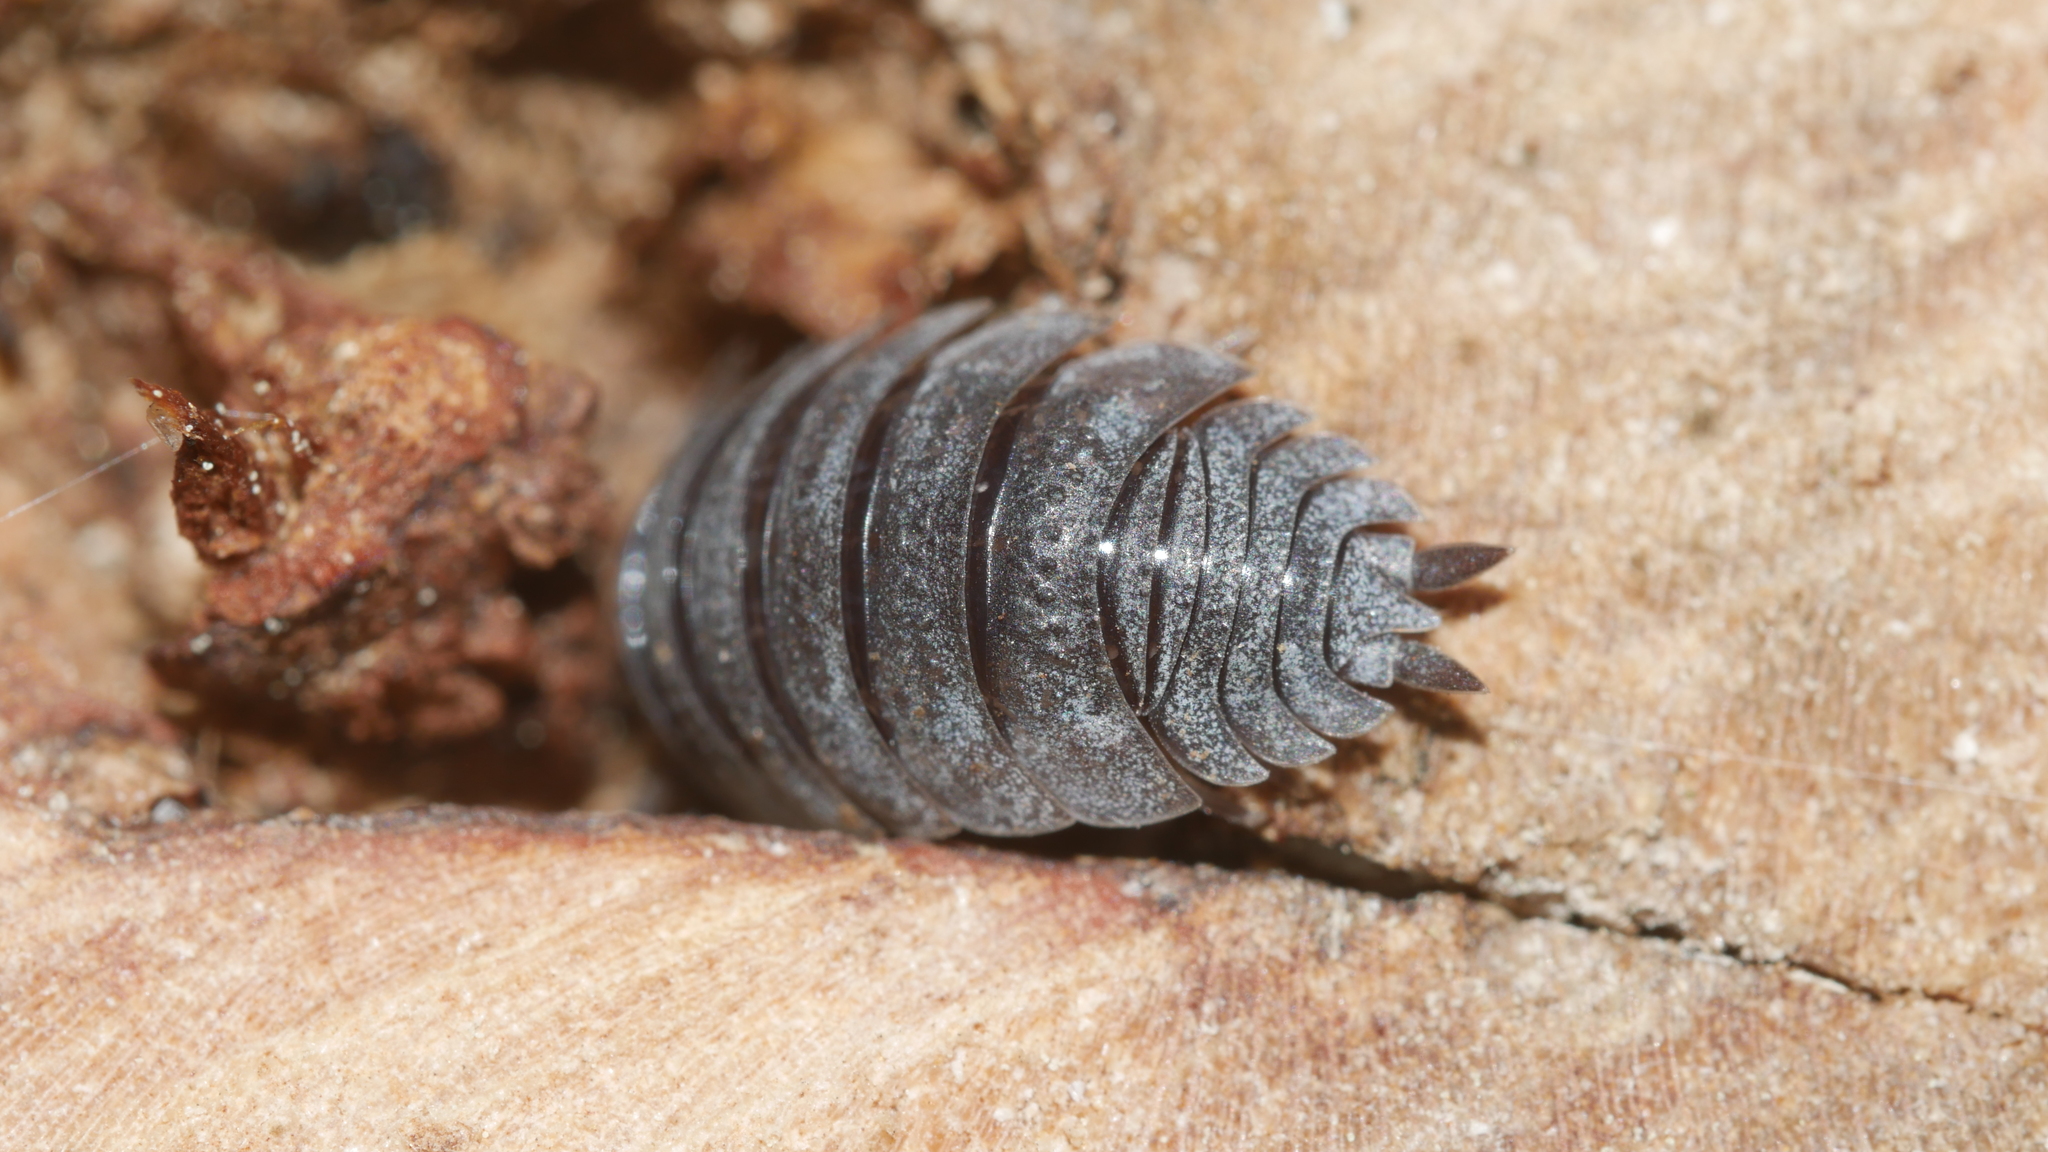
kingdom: Animalia
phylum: Arthropoda
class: Malacostraca
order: Isopoda
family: Porcellionidae
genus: Porcellio
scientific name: Porcellio scaber
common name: Common rough woodlouse
